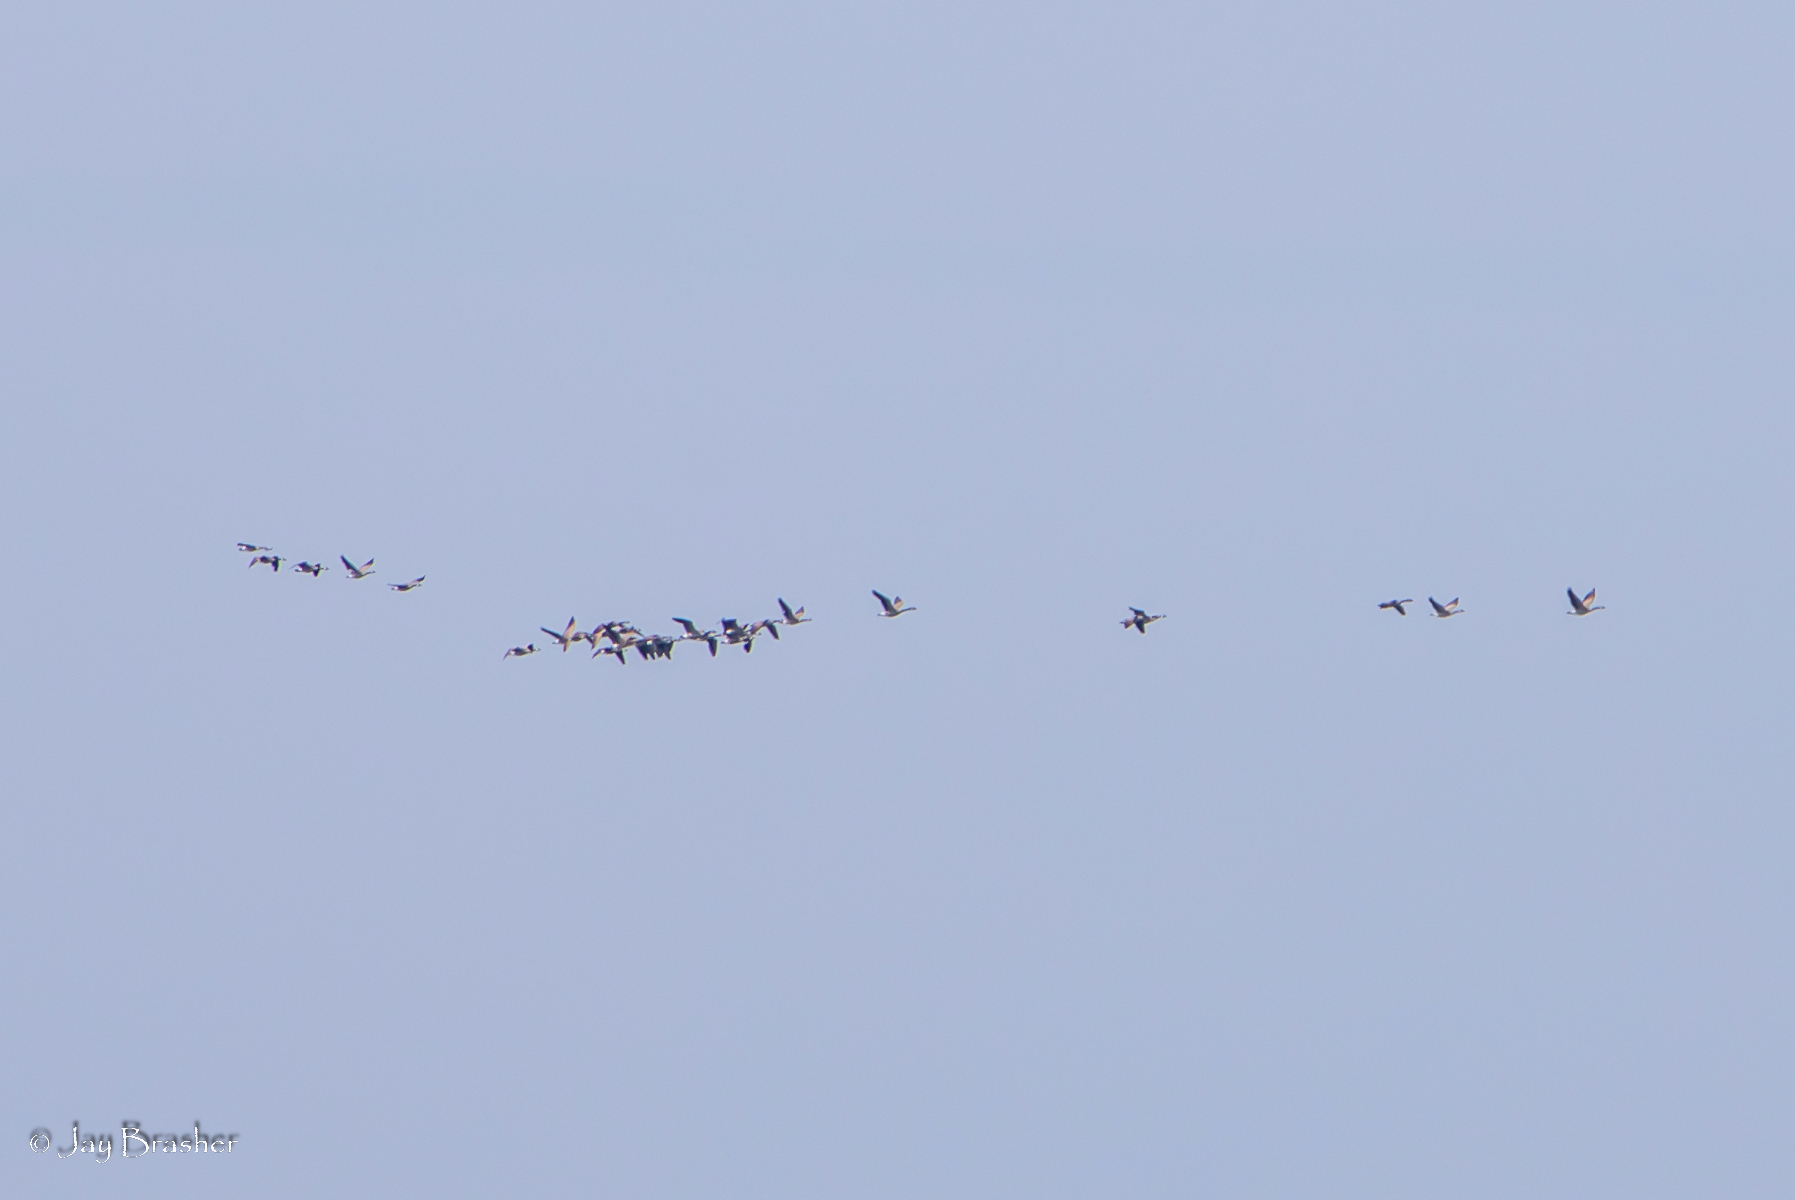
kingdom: Animalia
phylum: Chordata
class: Aves
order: Anseriformes
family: Anatidae
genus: Branta
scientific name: Branta canadensis
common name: Canada goose
